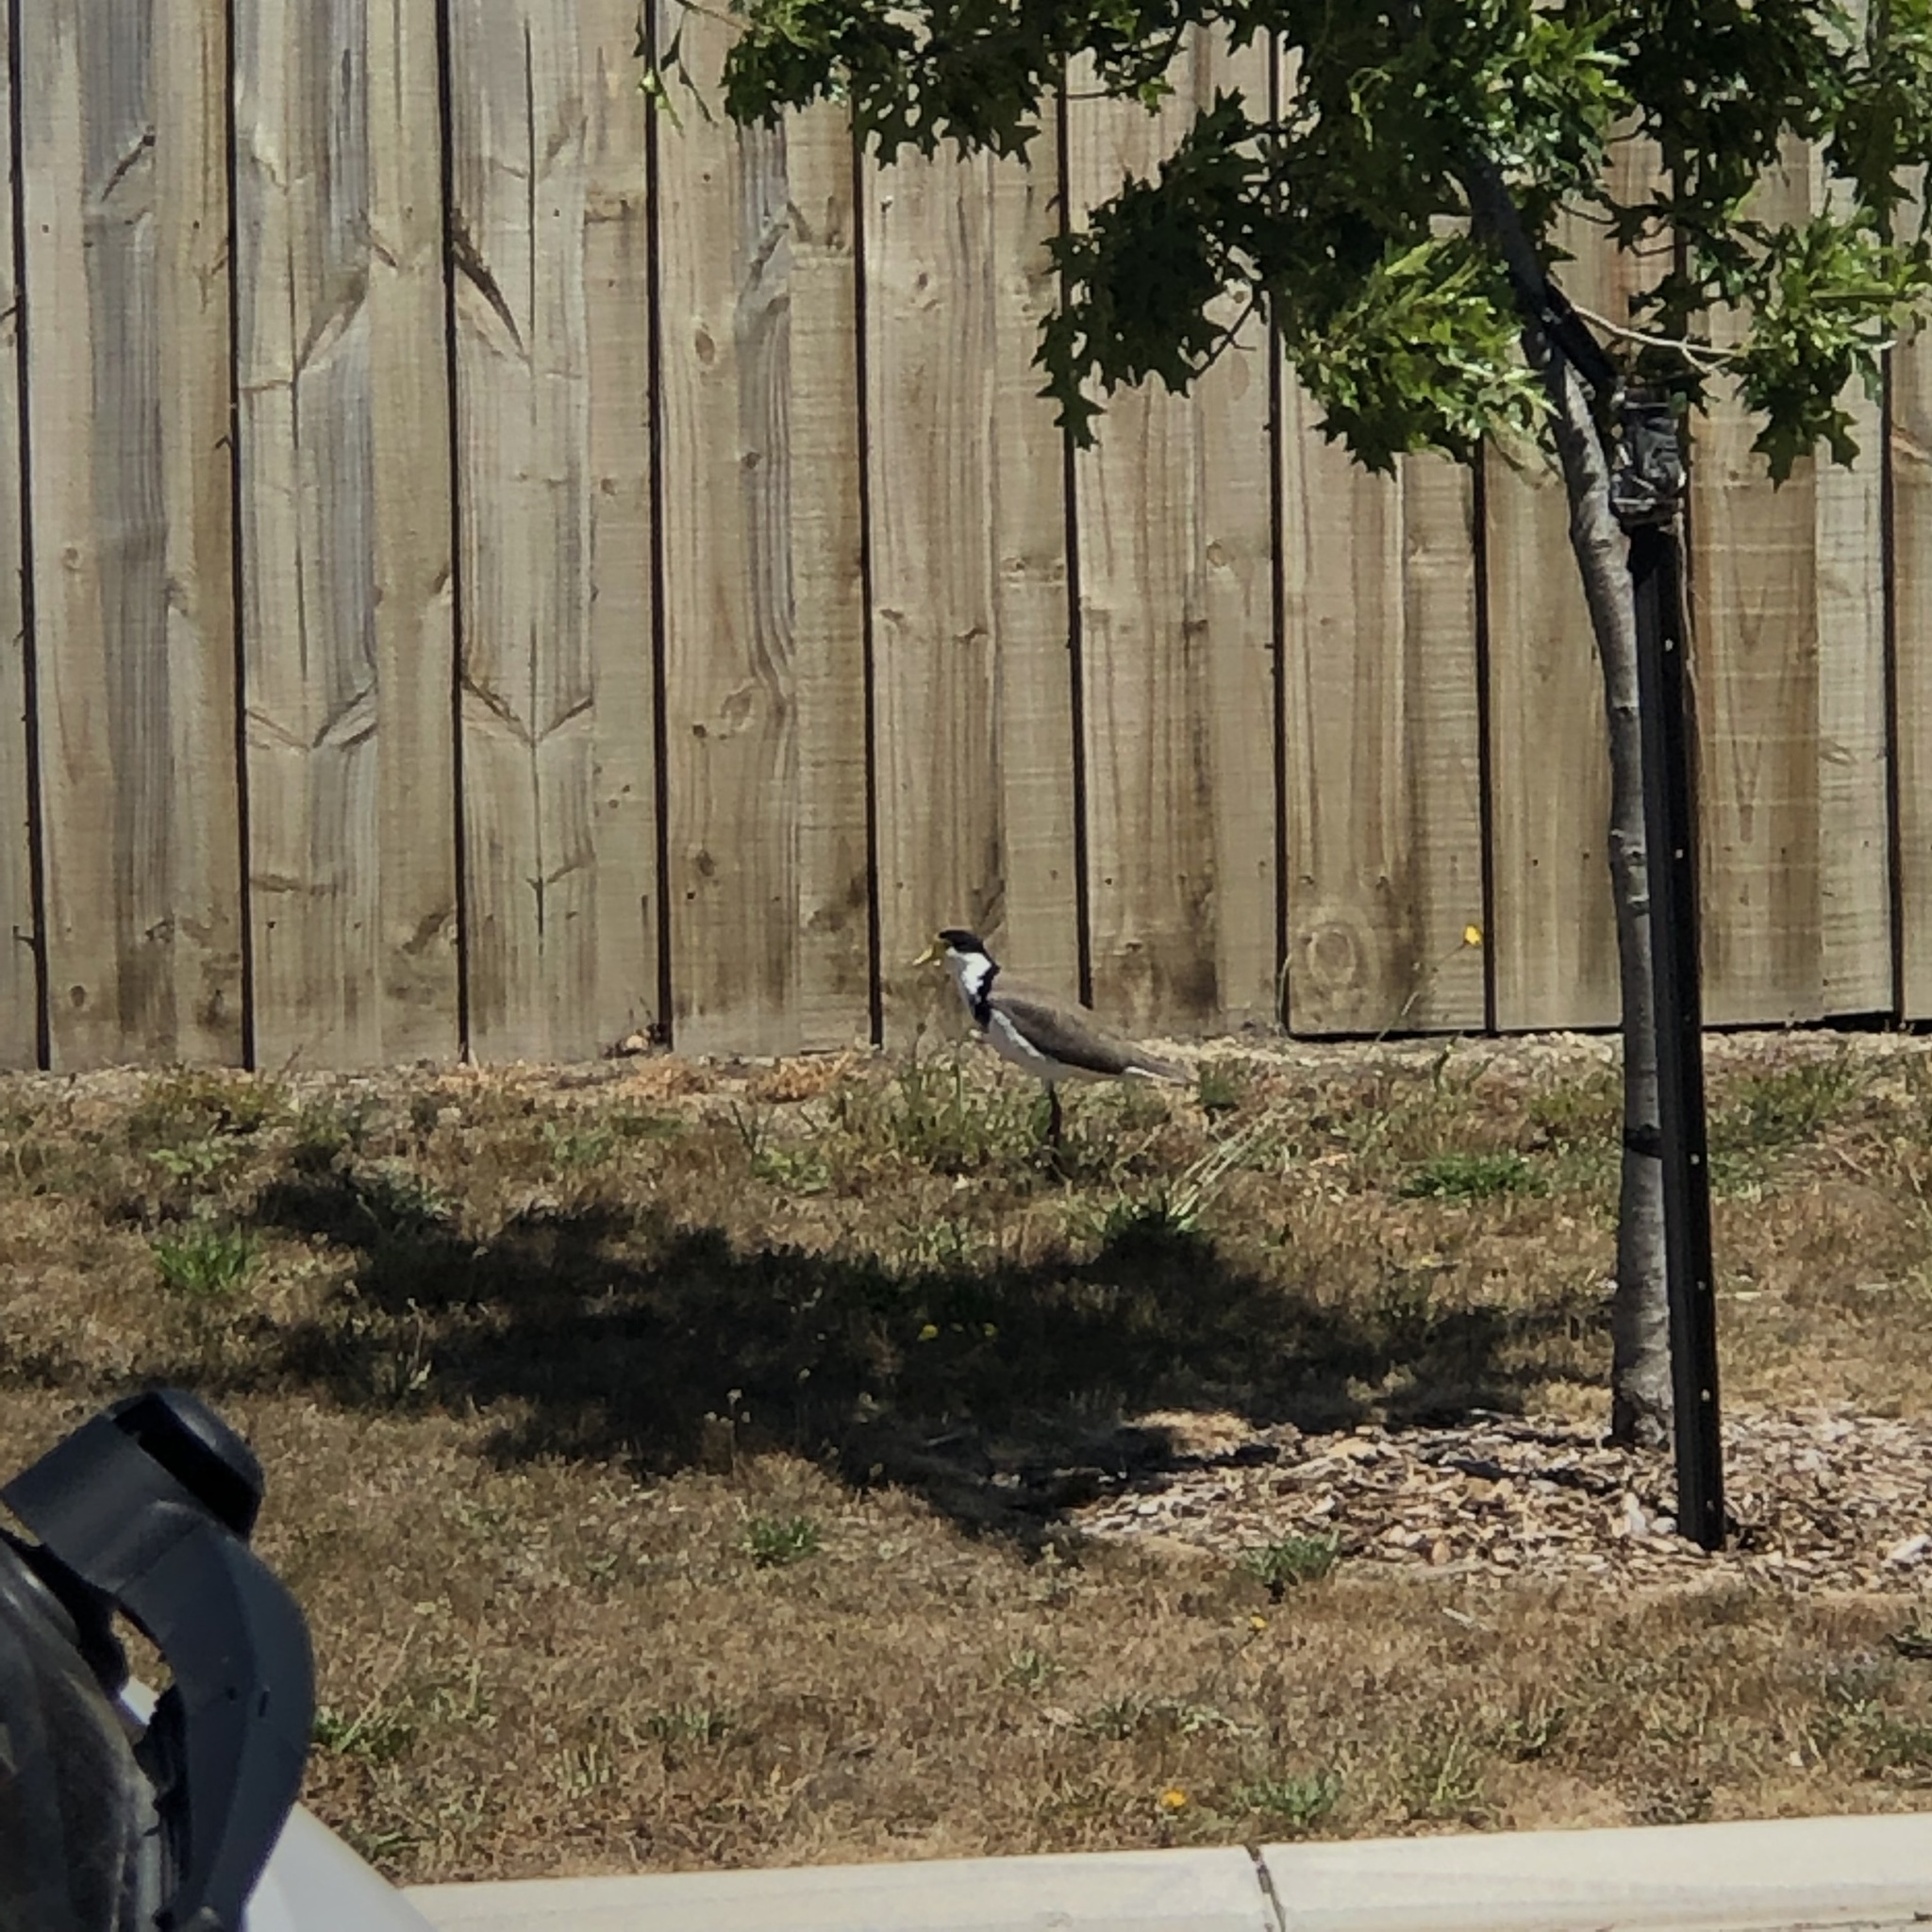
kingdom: Animalia
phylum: Chordata
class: Aves
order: Charadriiformes
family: Charadriidae
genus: Vanellus
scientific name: Vanellus miles
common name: Masked lapwing
